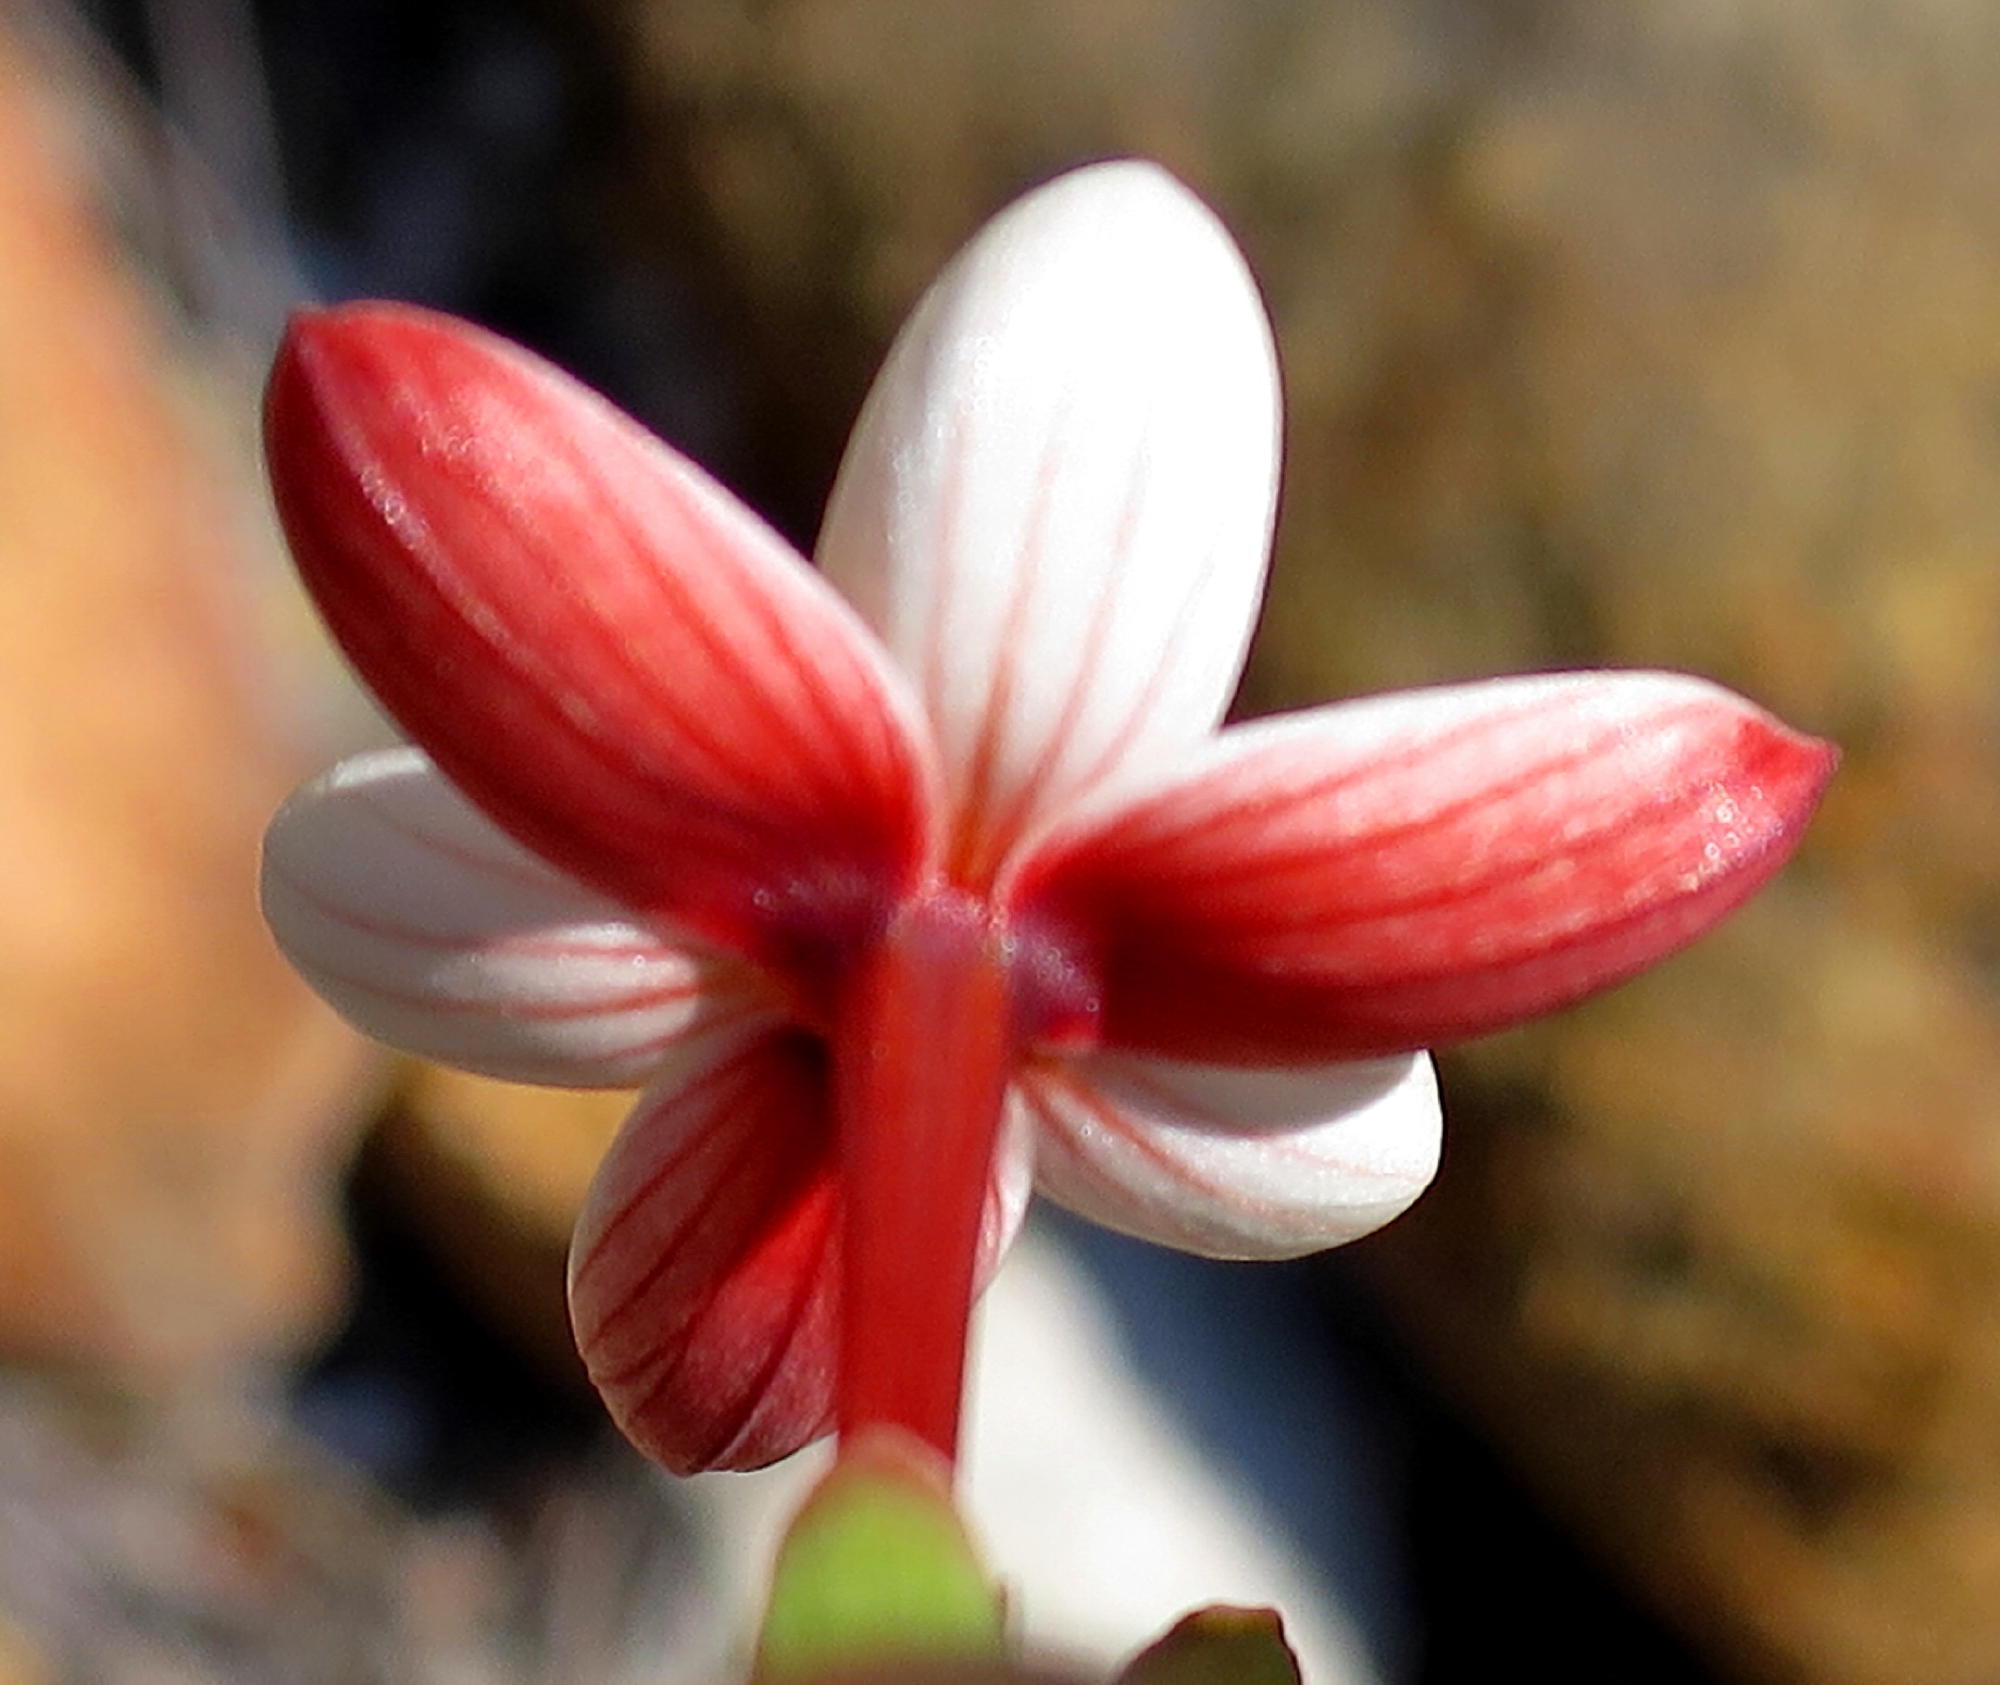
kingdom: Plantae
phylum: Tracheophyta
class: Liliopsida
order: Asparagales
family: Iridaceae
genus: Geissorhiza
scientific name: Geissorhiza ovata
